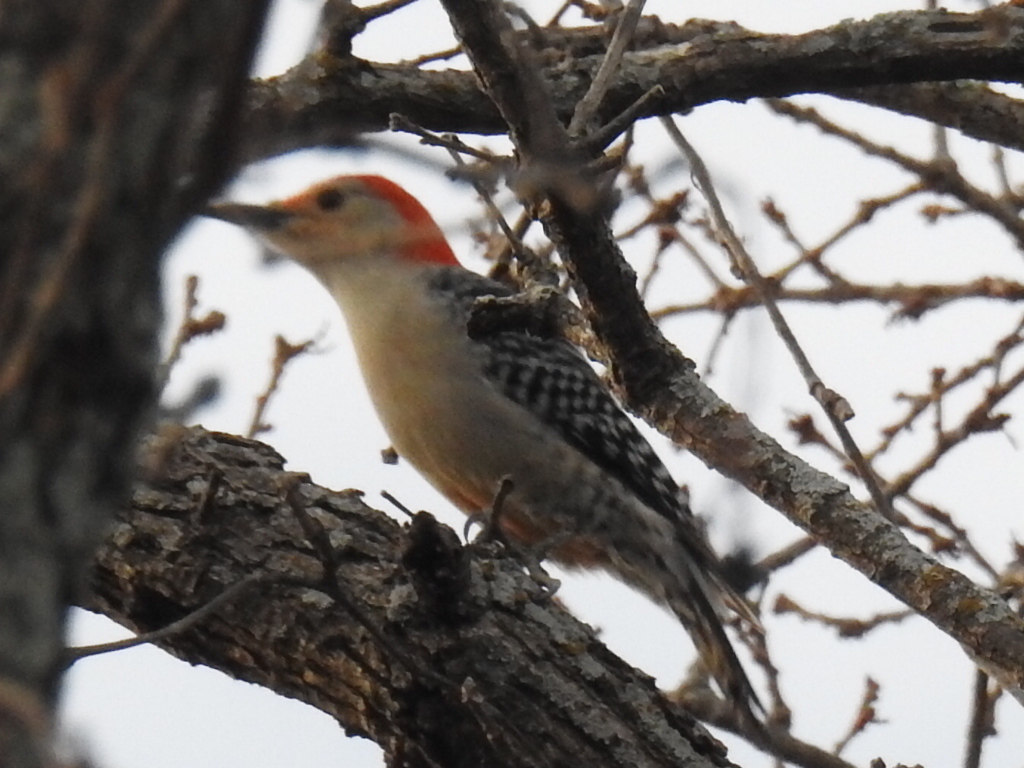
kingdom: Animalia
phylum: Chordata
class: Aves
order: Piciformes
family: Picidae
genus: Melanerpes
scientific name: Melanerpes carolinus
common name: Red-bellied woodpecker
